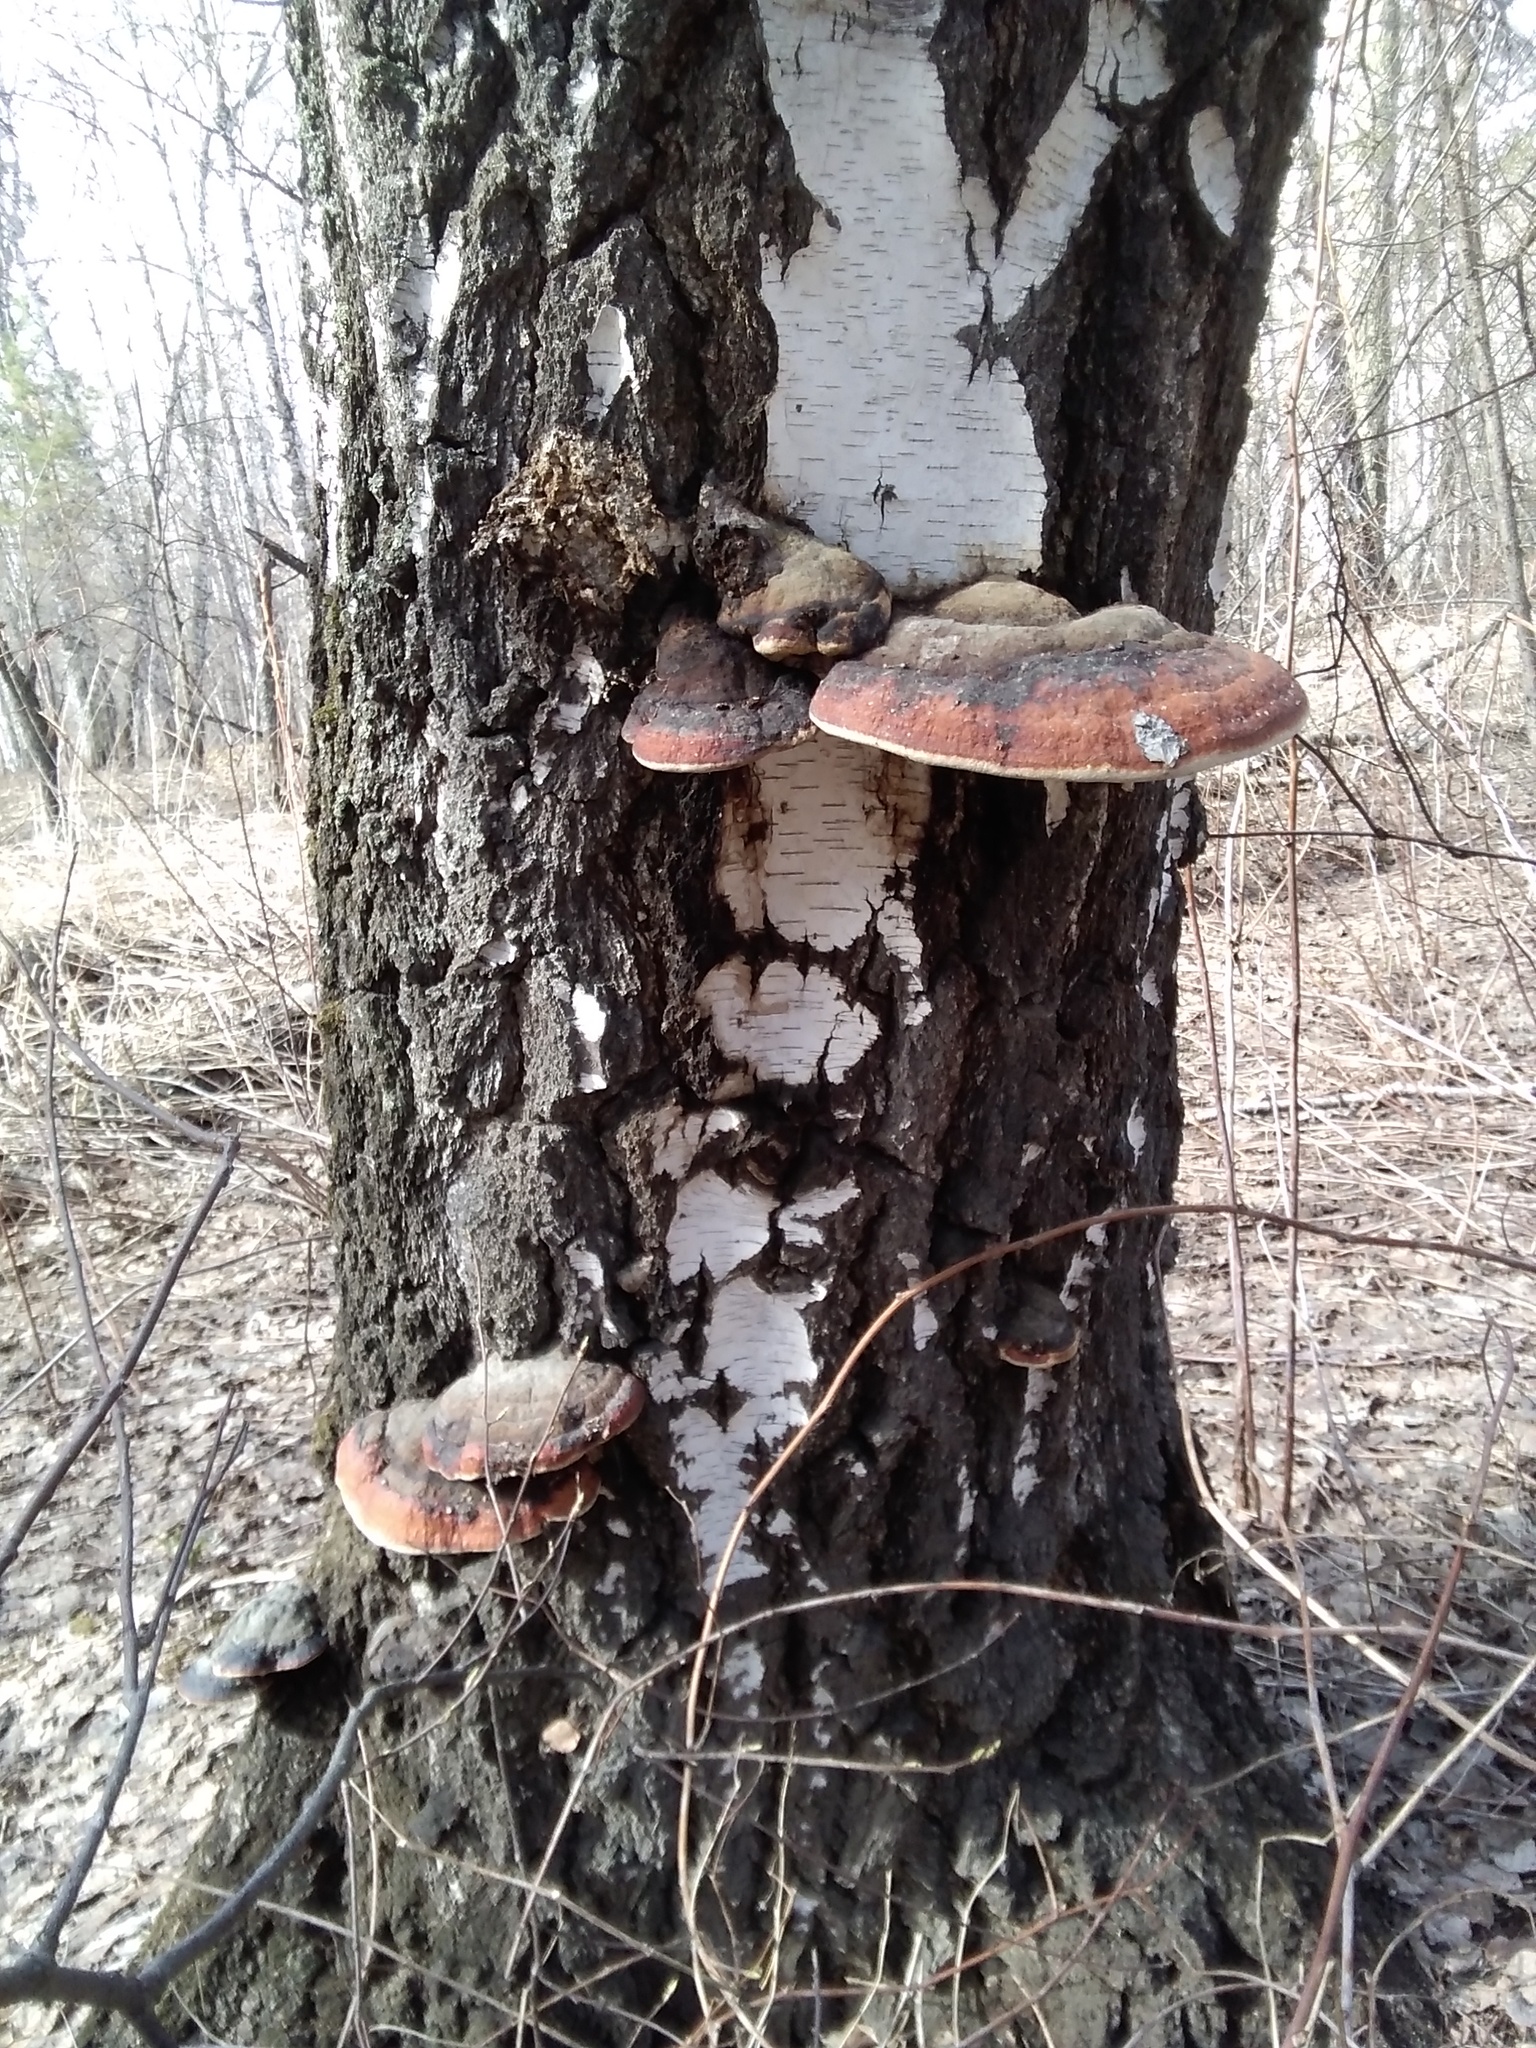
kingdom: Fungi
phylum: Basidiomycota
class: Agaricomycetes
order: Polyporales
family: Fomitopsidaceae
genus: Fomitopsis
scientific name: Fomitopsis pinicola
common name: Red-belted bracket
